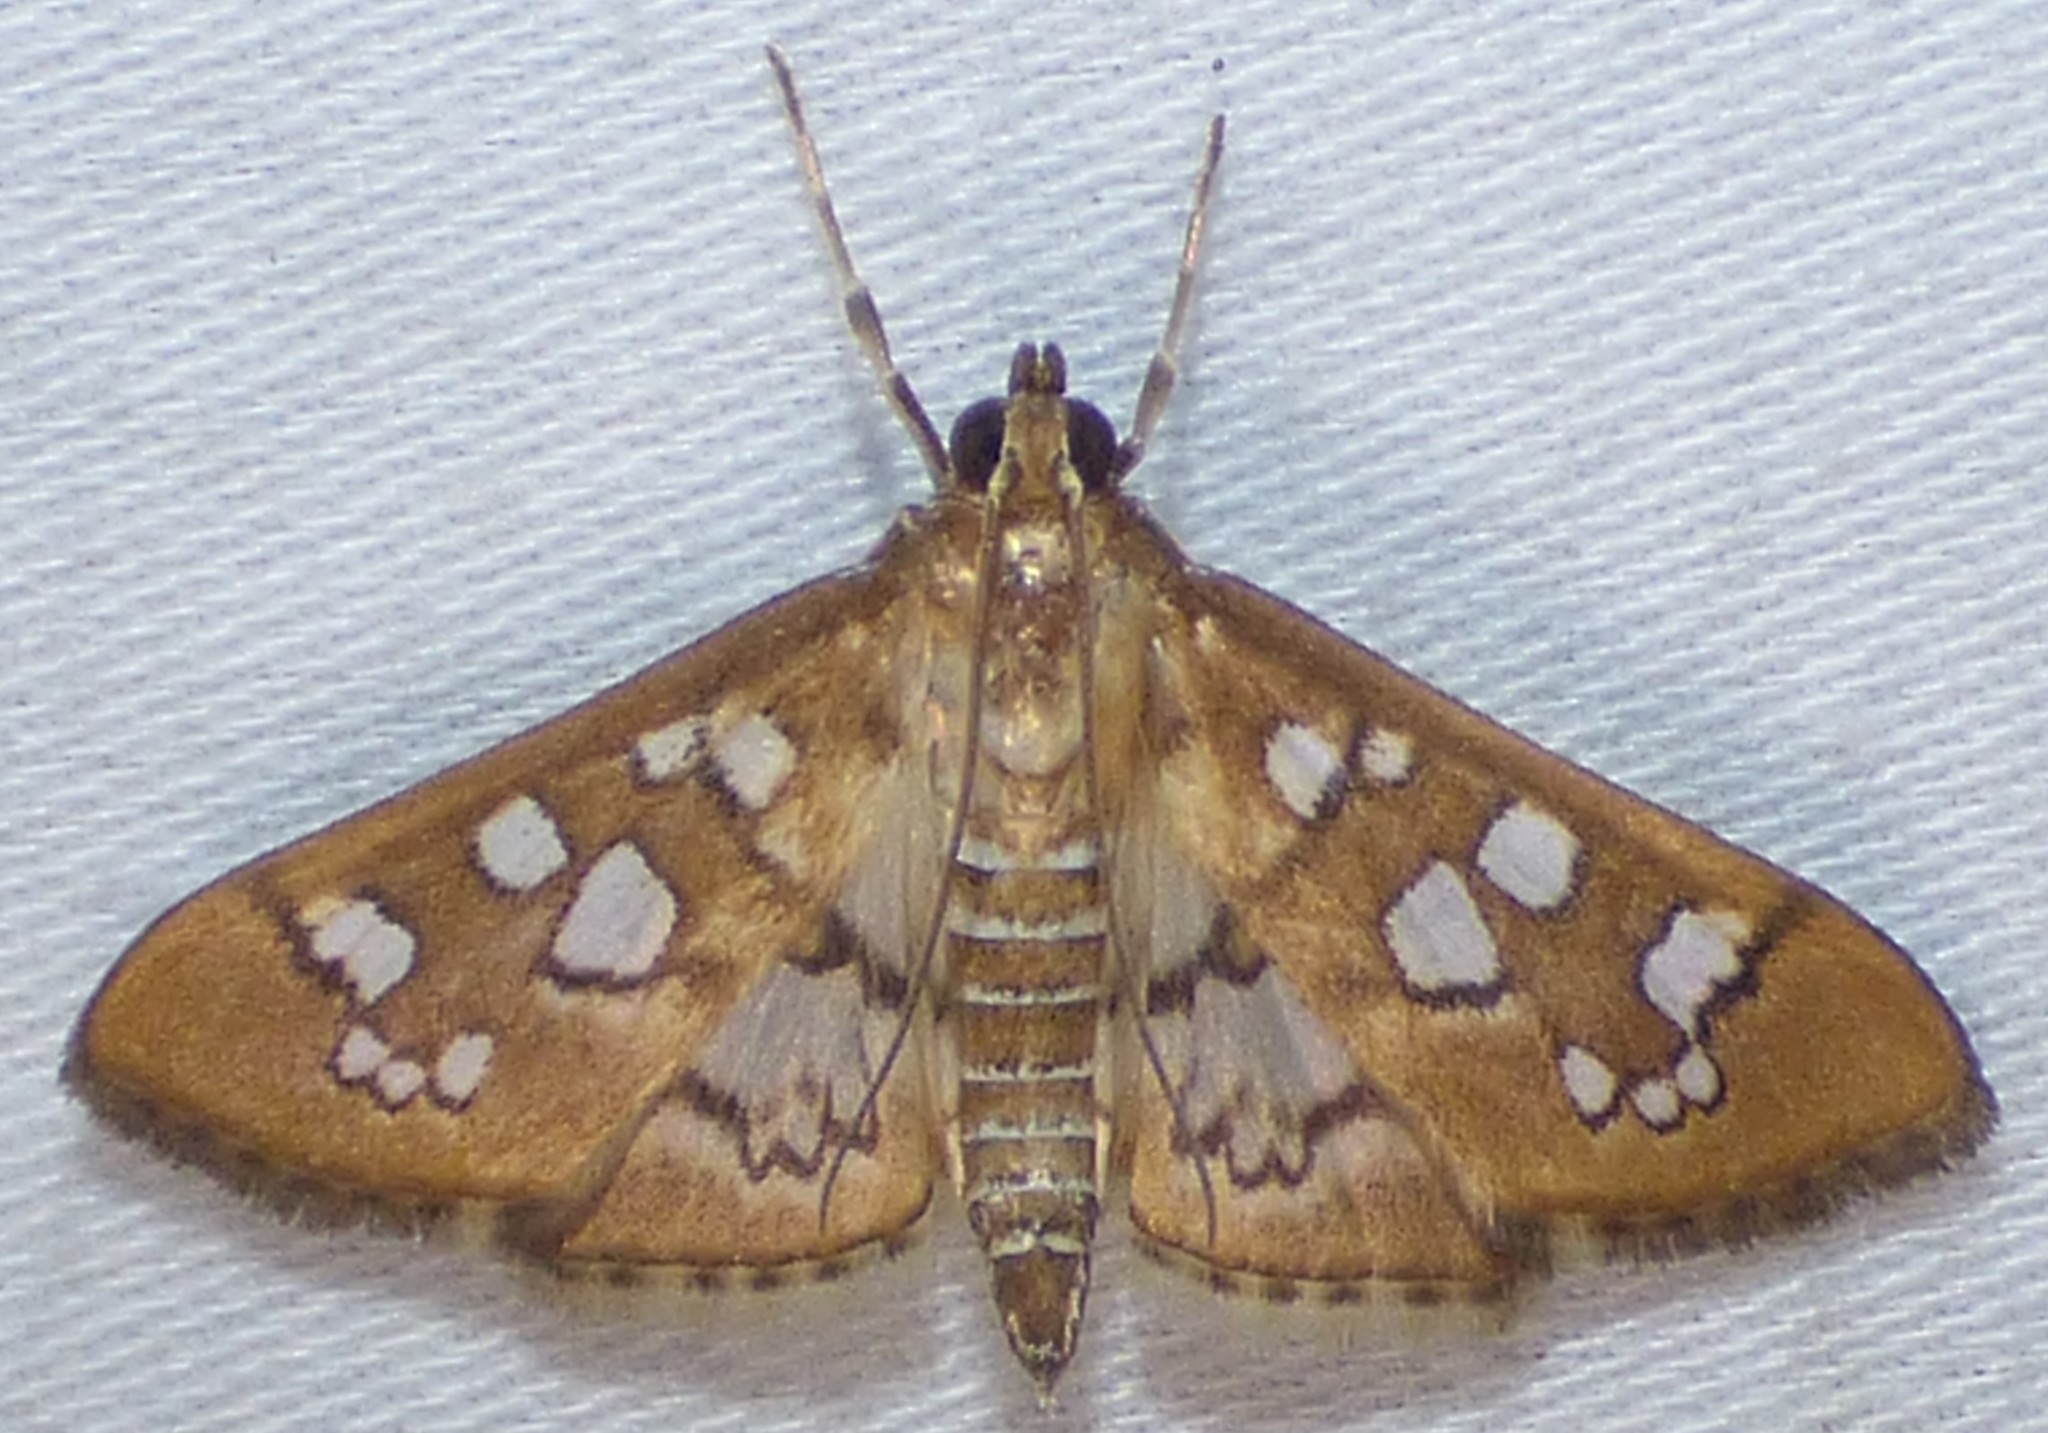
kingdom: Animalia
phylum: Arthropoda
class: Insecta
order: Lepidoptera
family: Crambidae
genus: Samea
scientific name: Samea baccatalis
